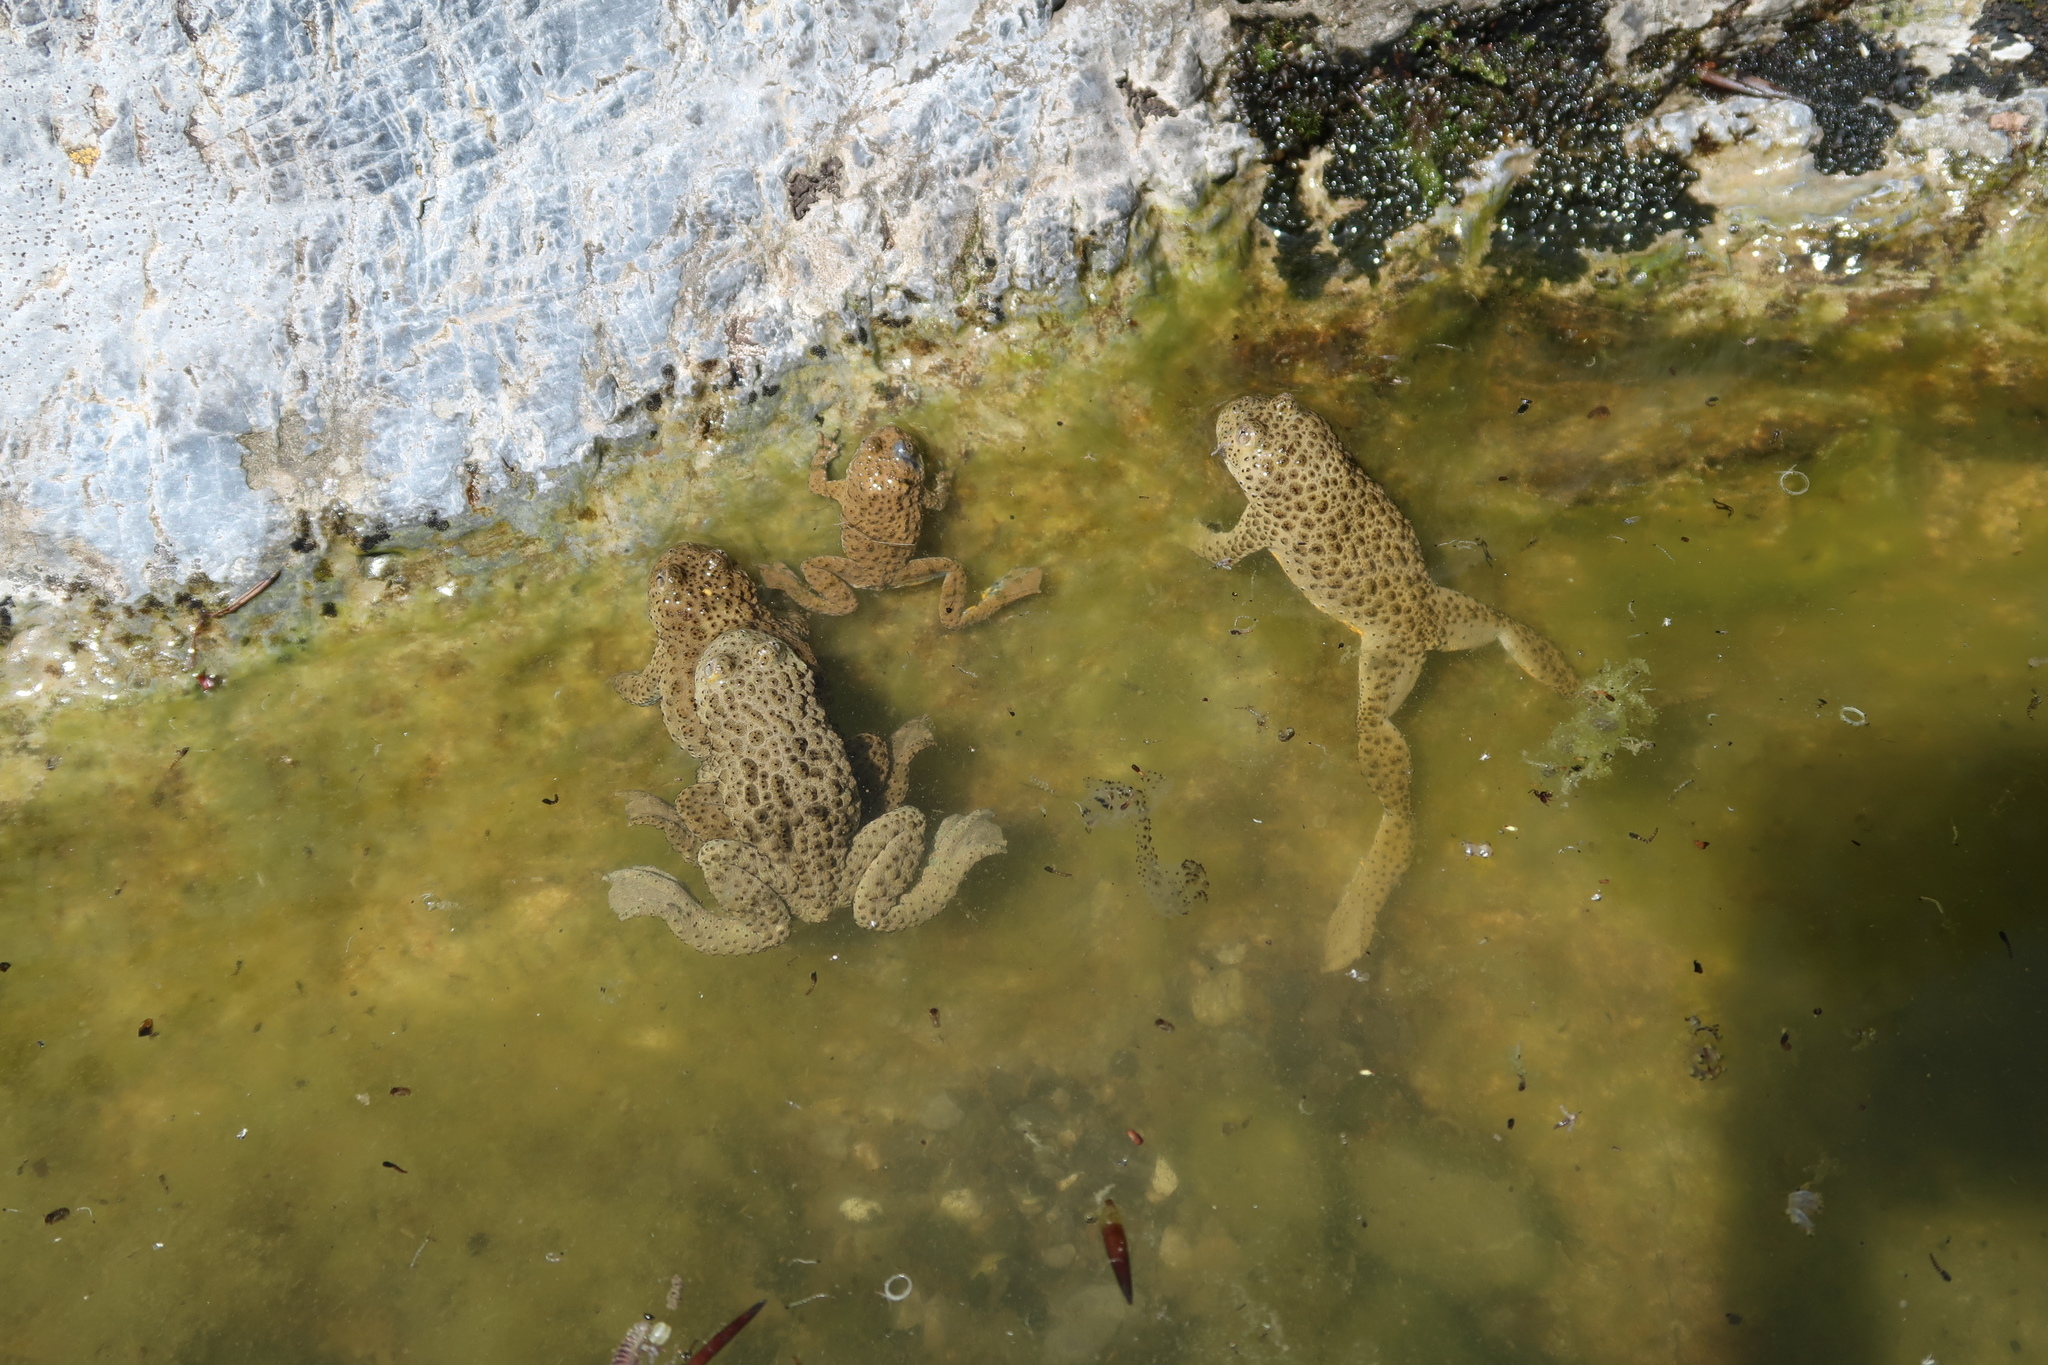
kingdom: Animalia
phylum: Chordata
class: Amphibia
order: Anura
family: Bombinatoridae
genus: Bombina
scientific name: Bombina variegata
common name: Yellow-bellied toad
